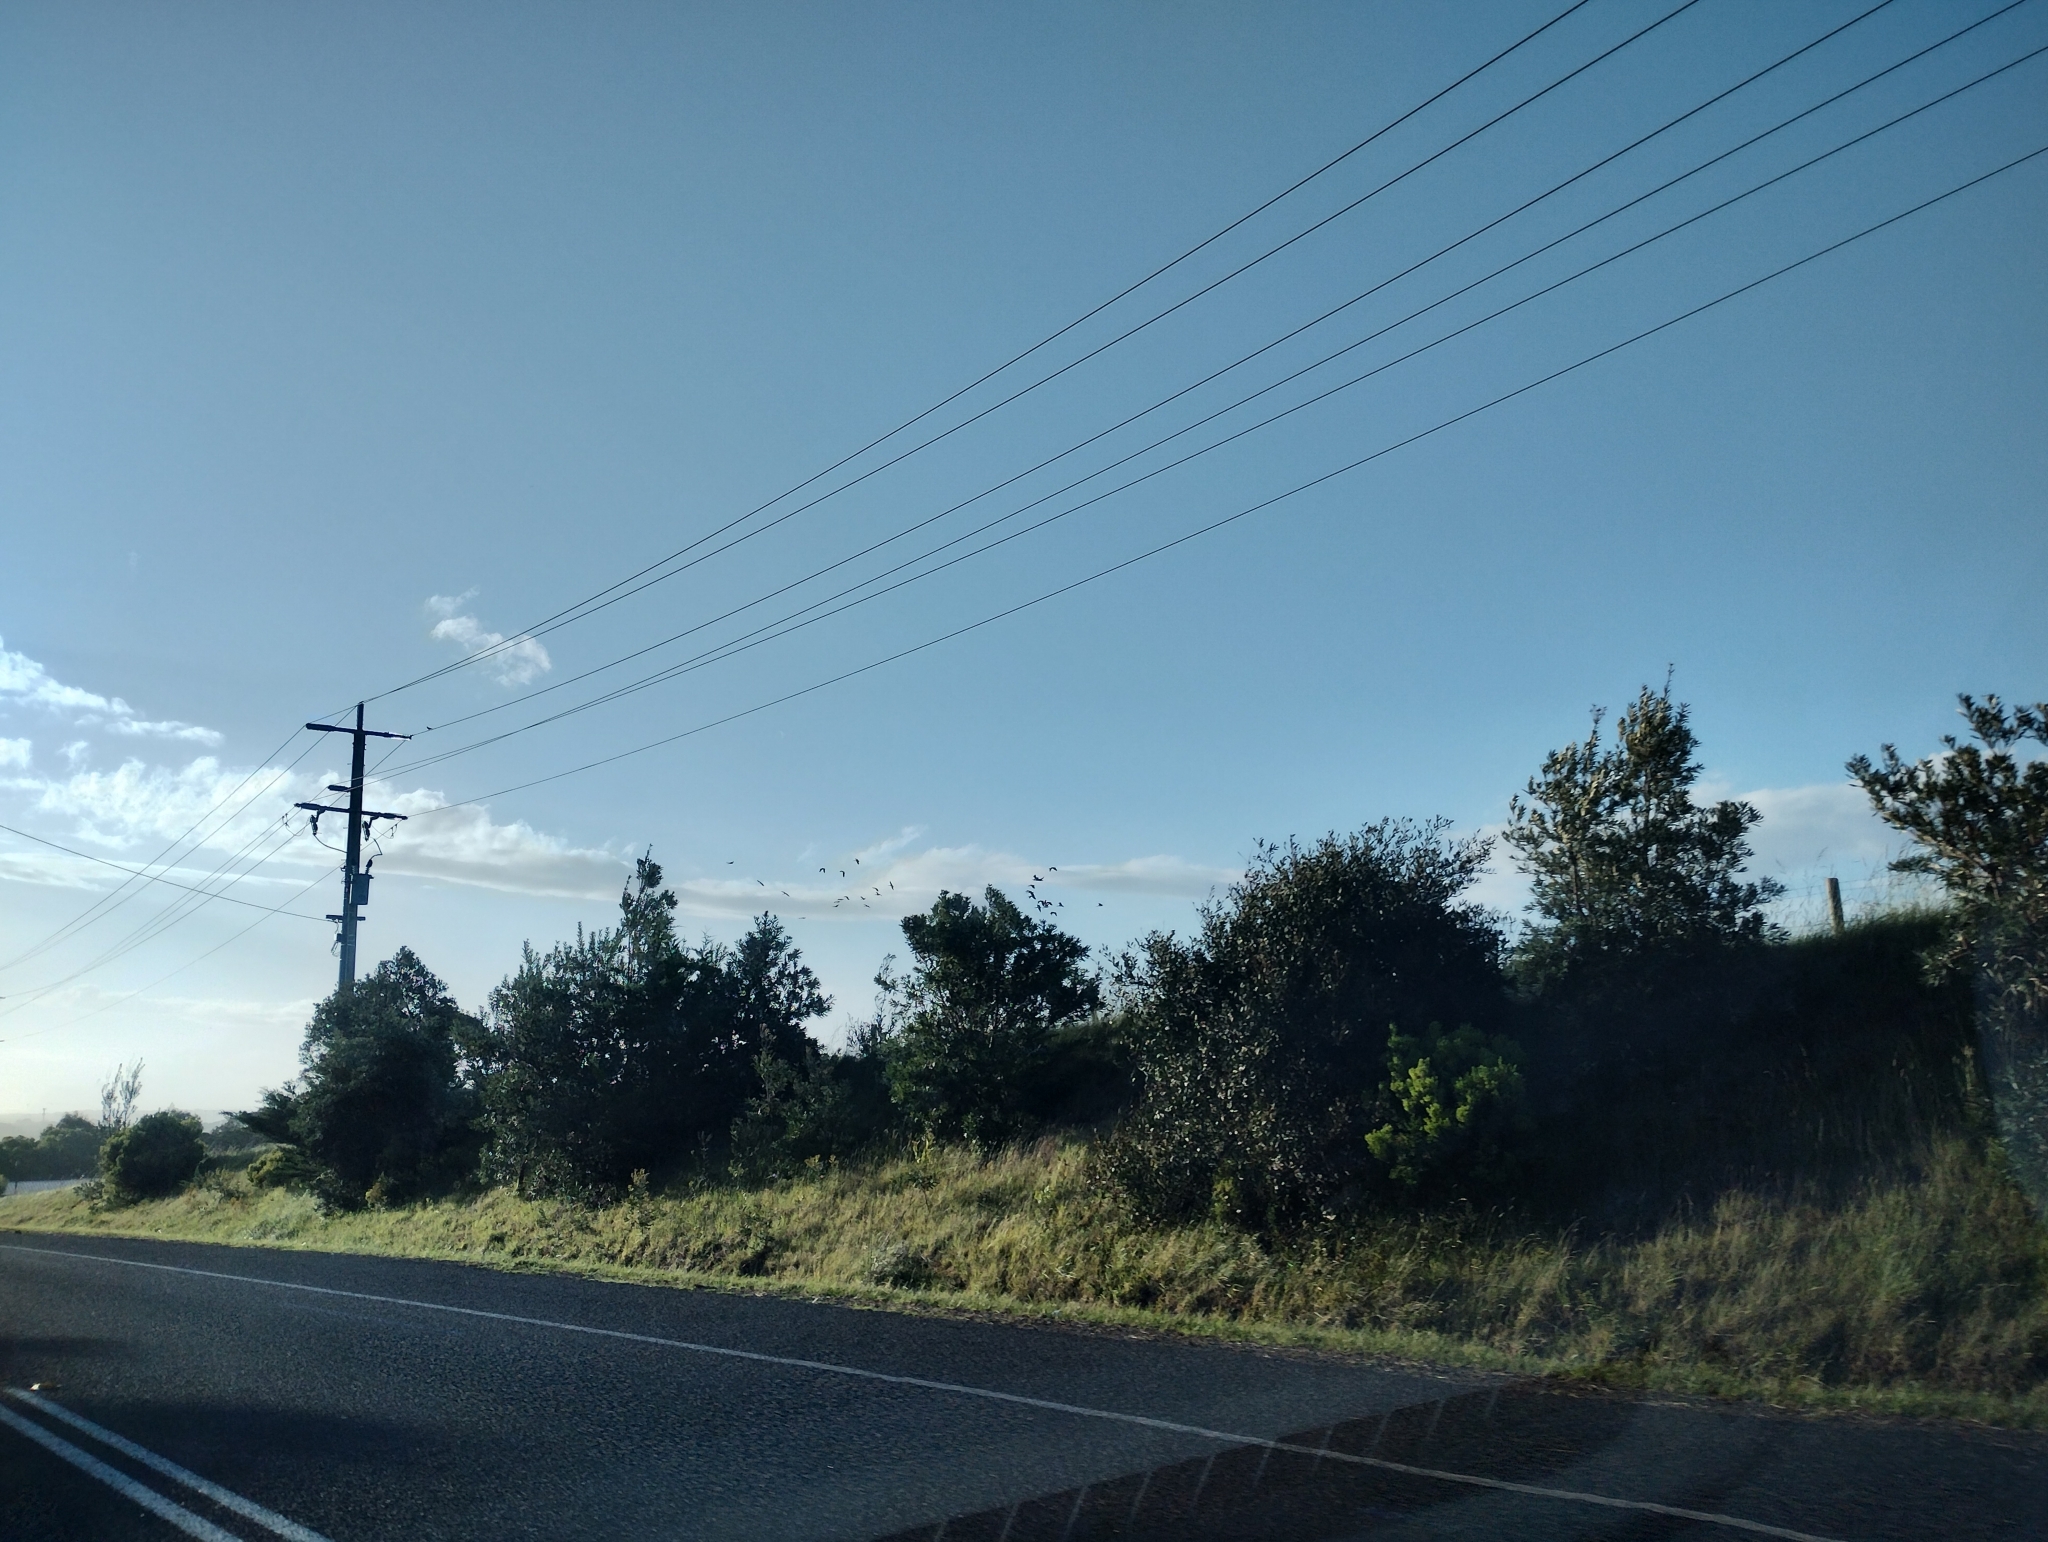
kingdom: Animalia
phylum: Chordata
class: Aves
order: Pelecaniformes
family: Threskiornithidae
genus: Threskiornis
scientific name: Threskiornis spinicollis
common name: Straw-necked ibis
